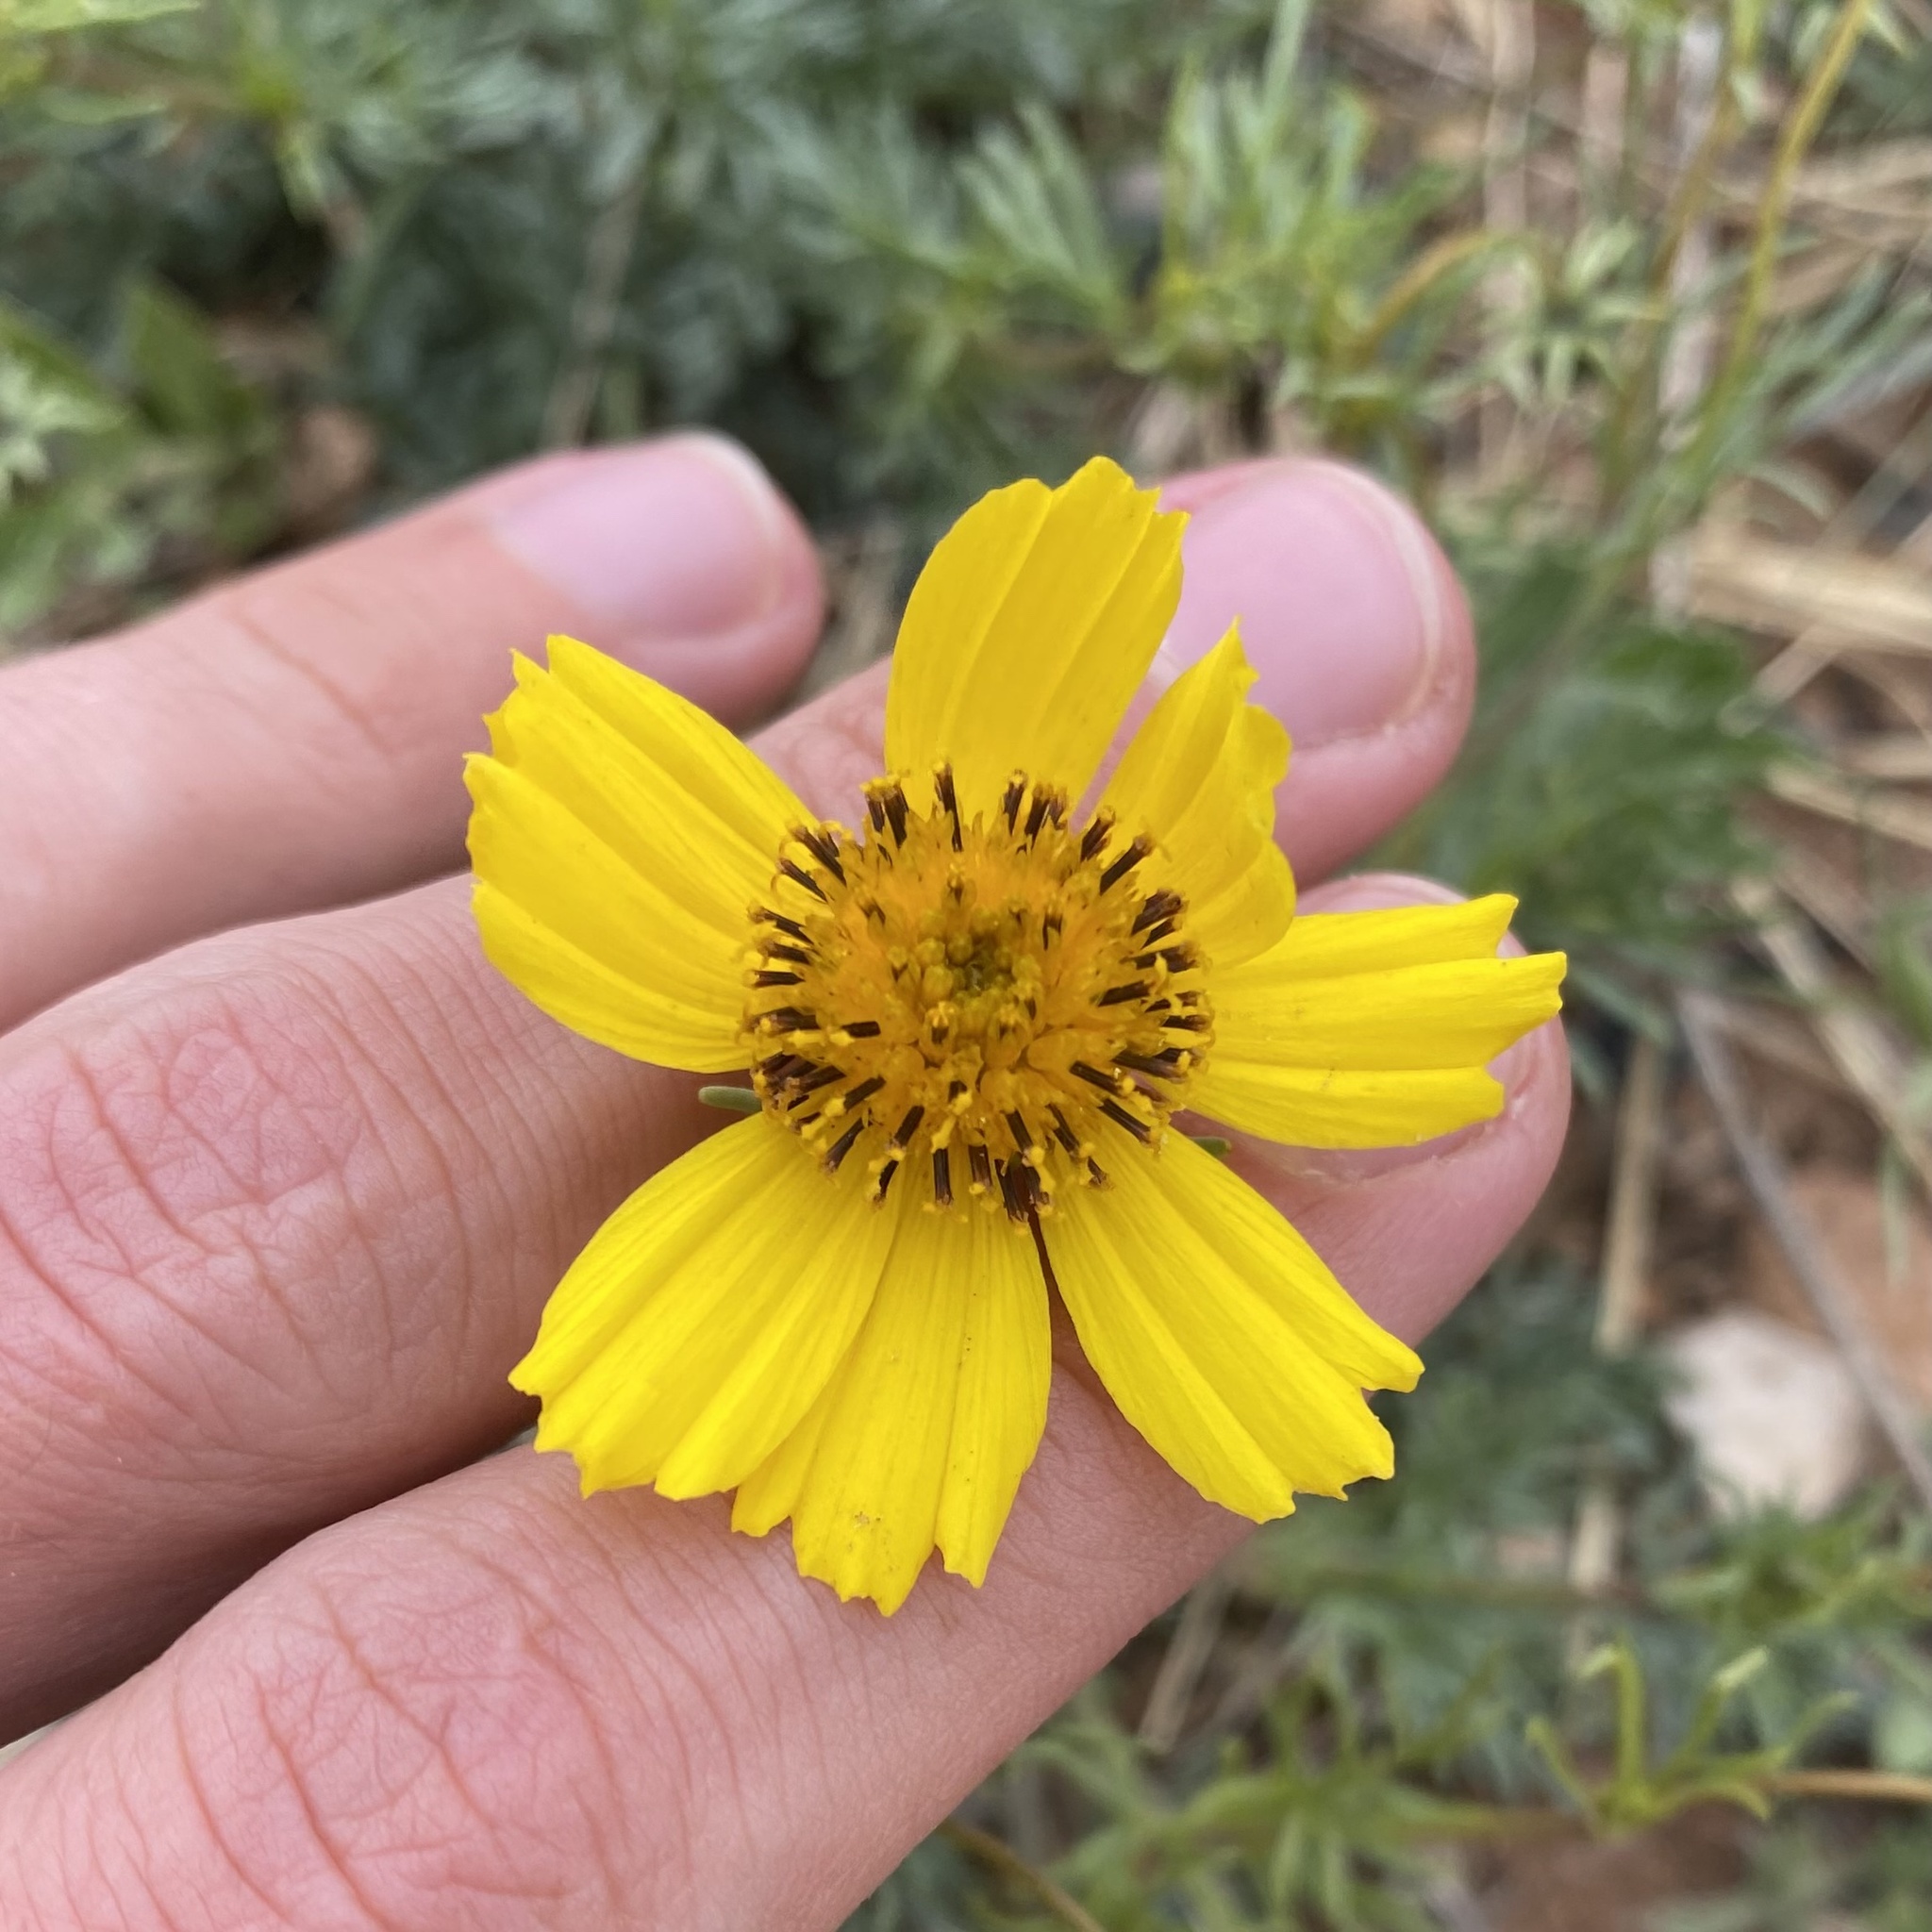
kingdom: Plantae
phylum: Tracheophyta
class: Magnoliopsida
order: Asterales
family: Asteraceae
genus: Thelesperma
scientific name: Thelesperma filifolium
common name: Stiff greenthread
